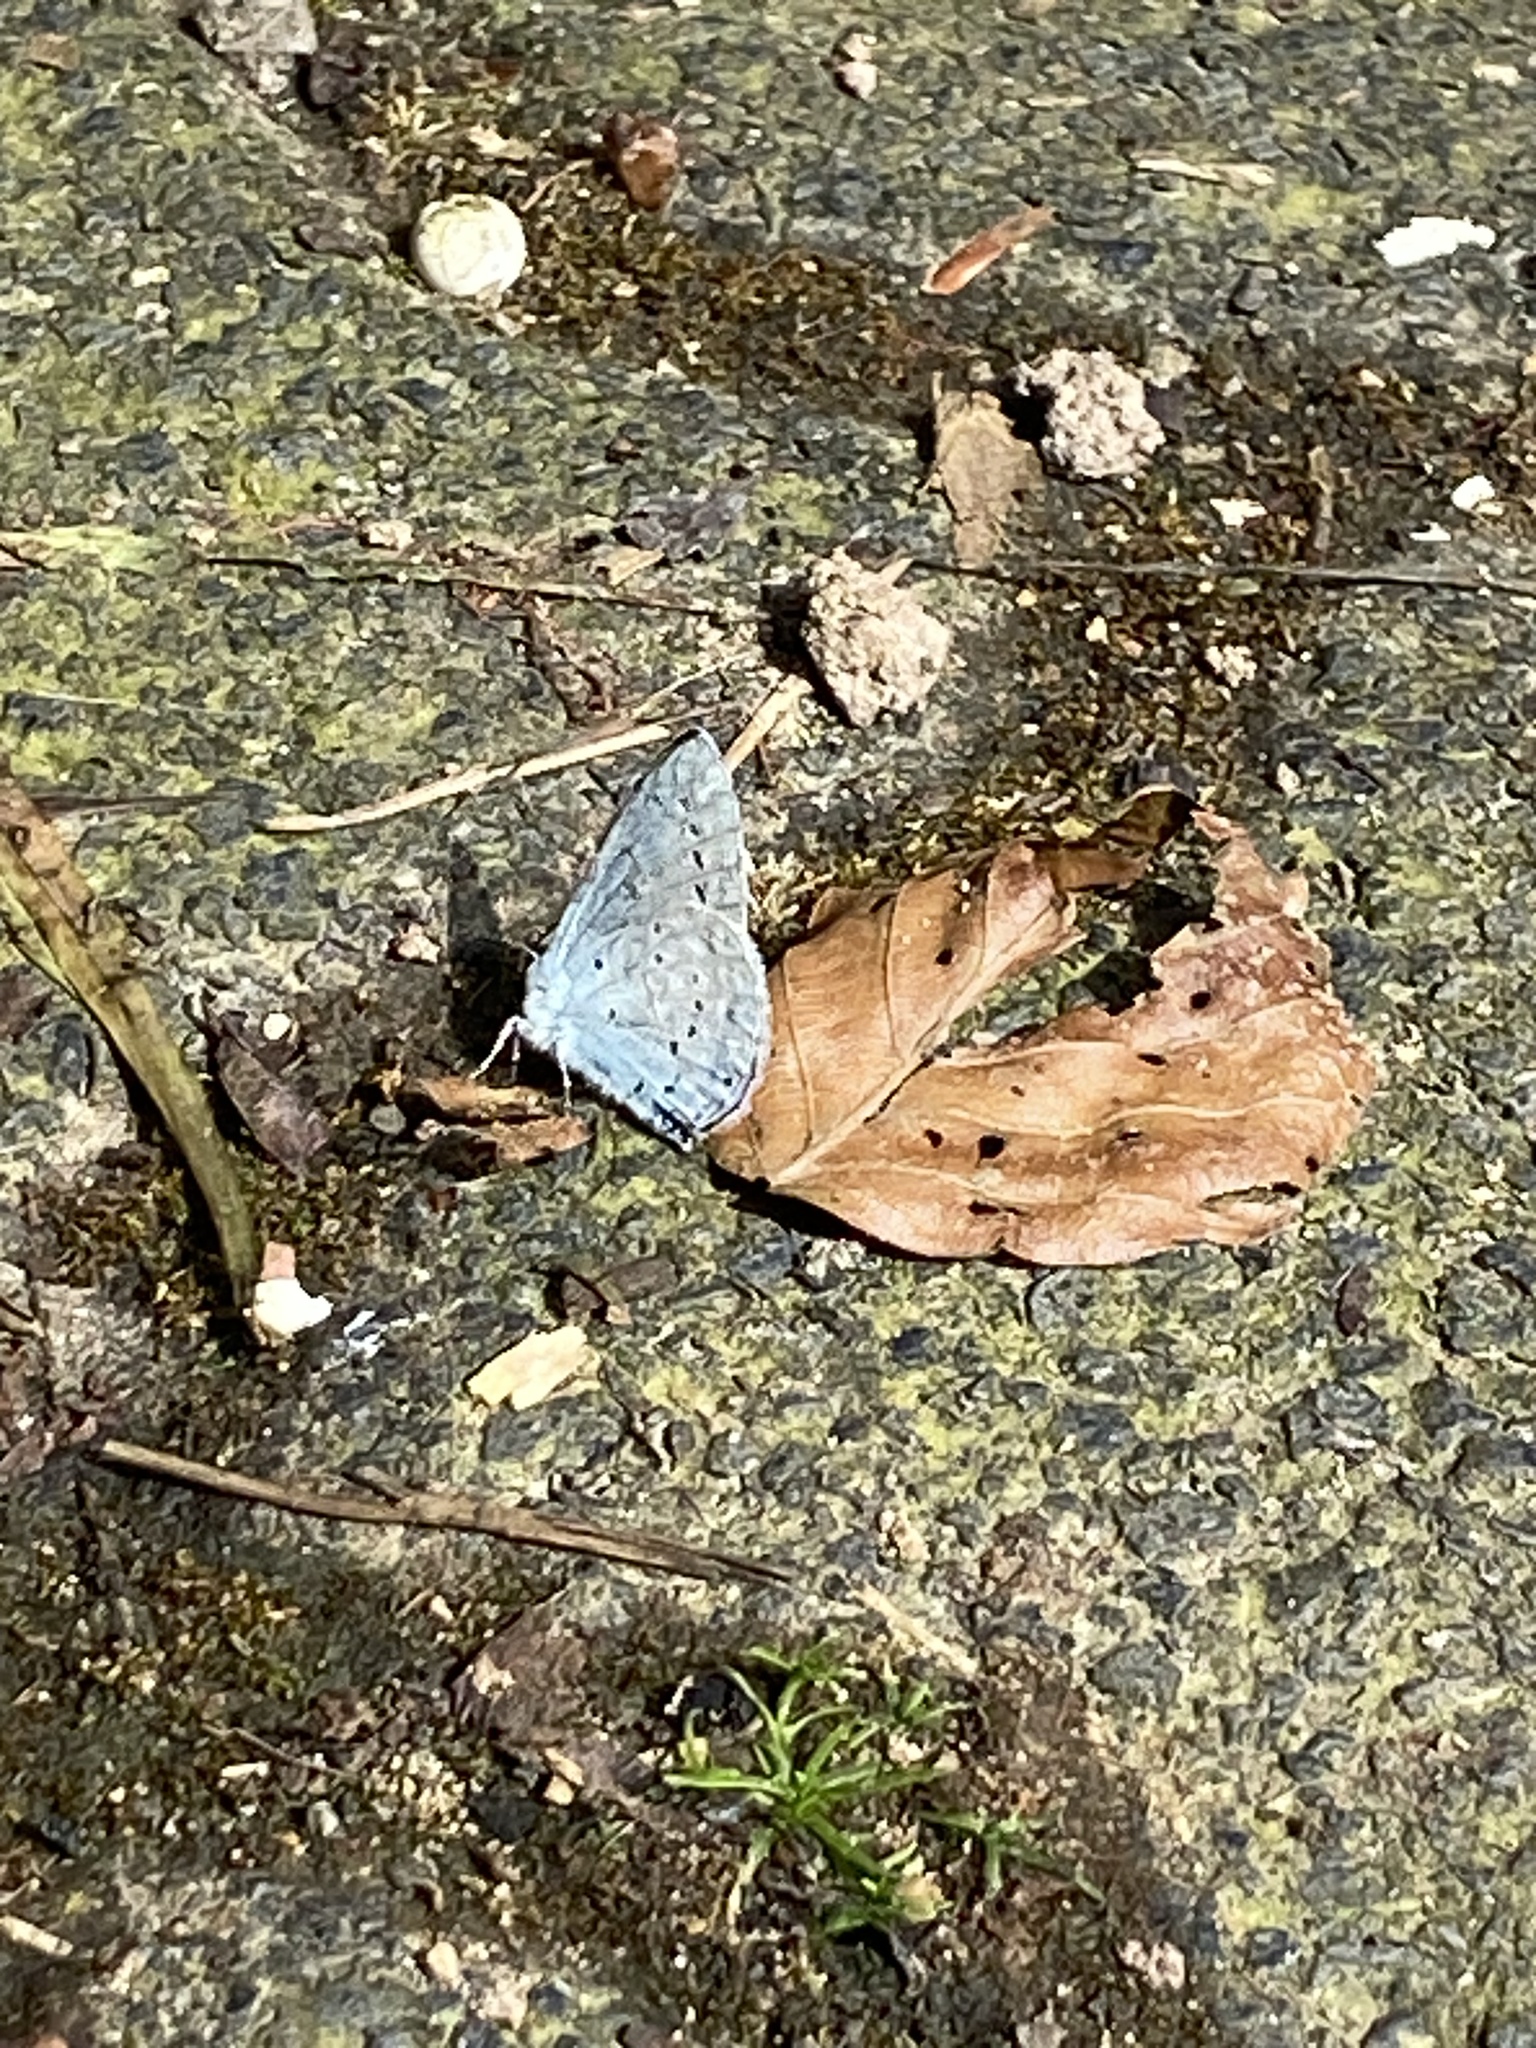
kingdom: Animalia
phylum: Arthropoda
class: Insecta
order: Lepidoptera
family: Lycaenidae
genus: Celastrina
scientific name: Celastrina argiolus
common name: Holly blue
